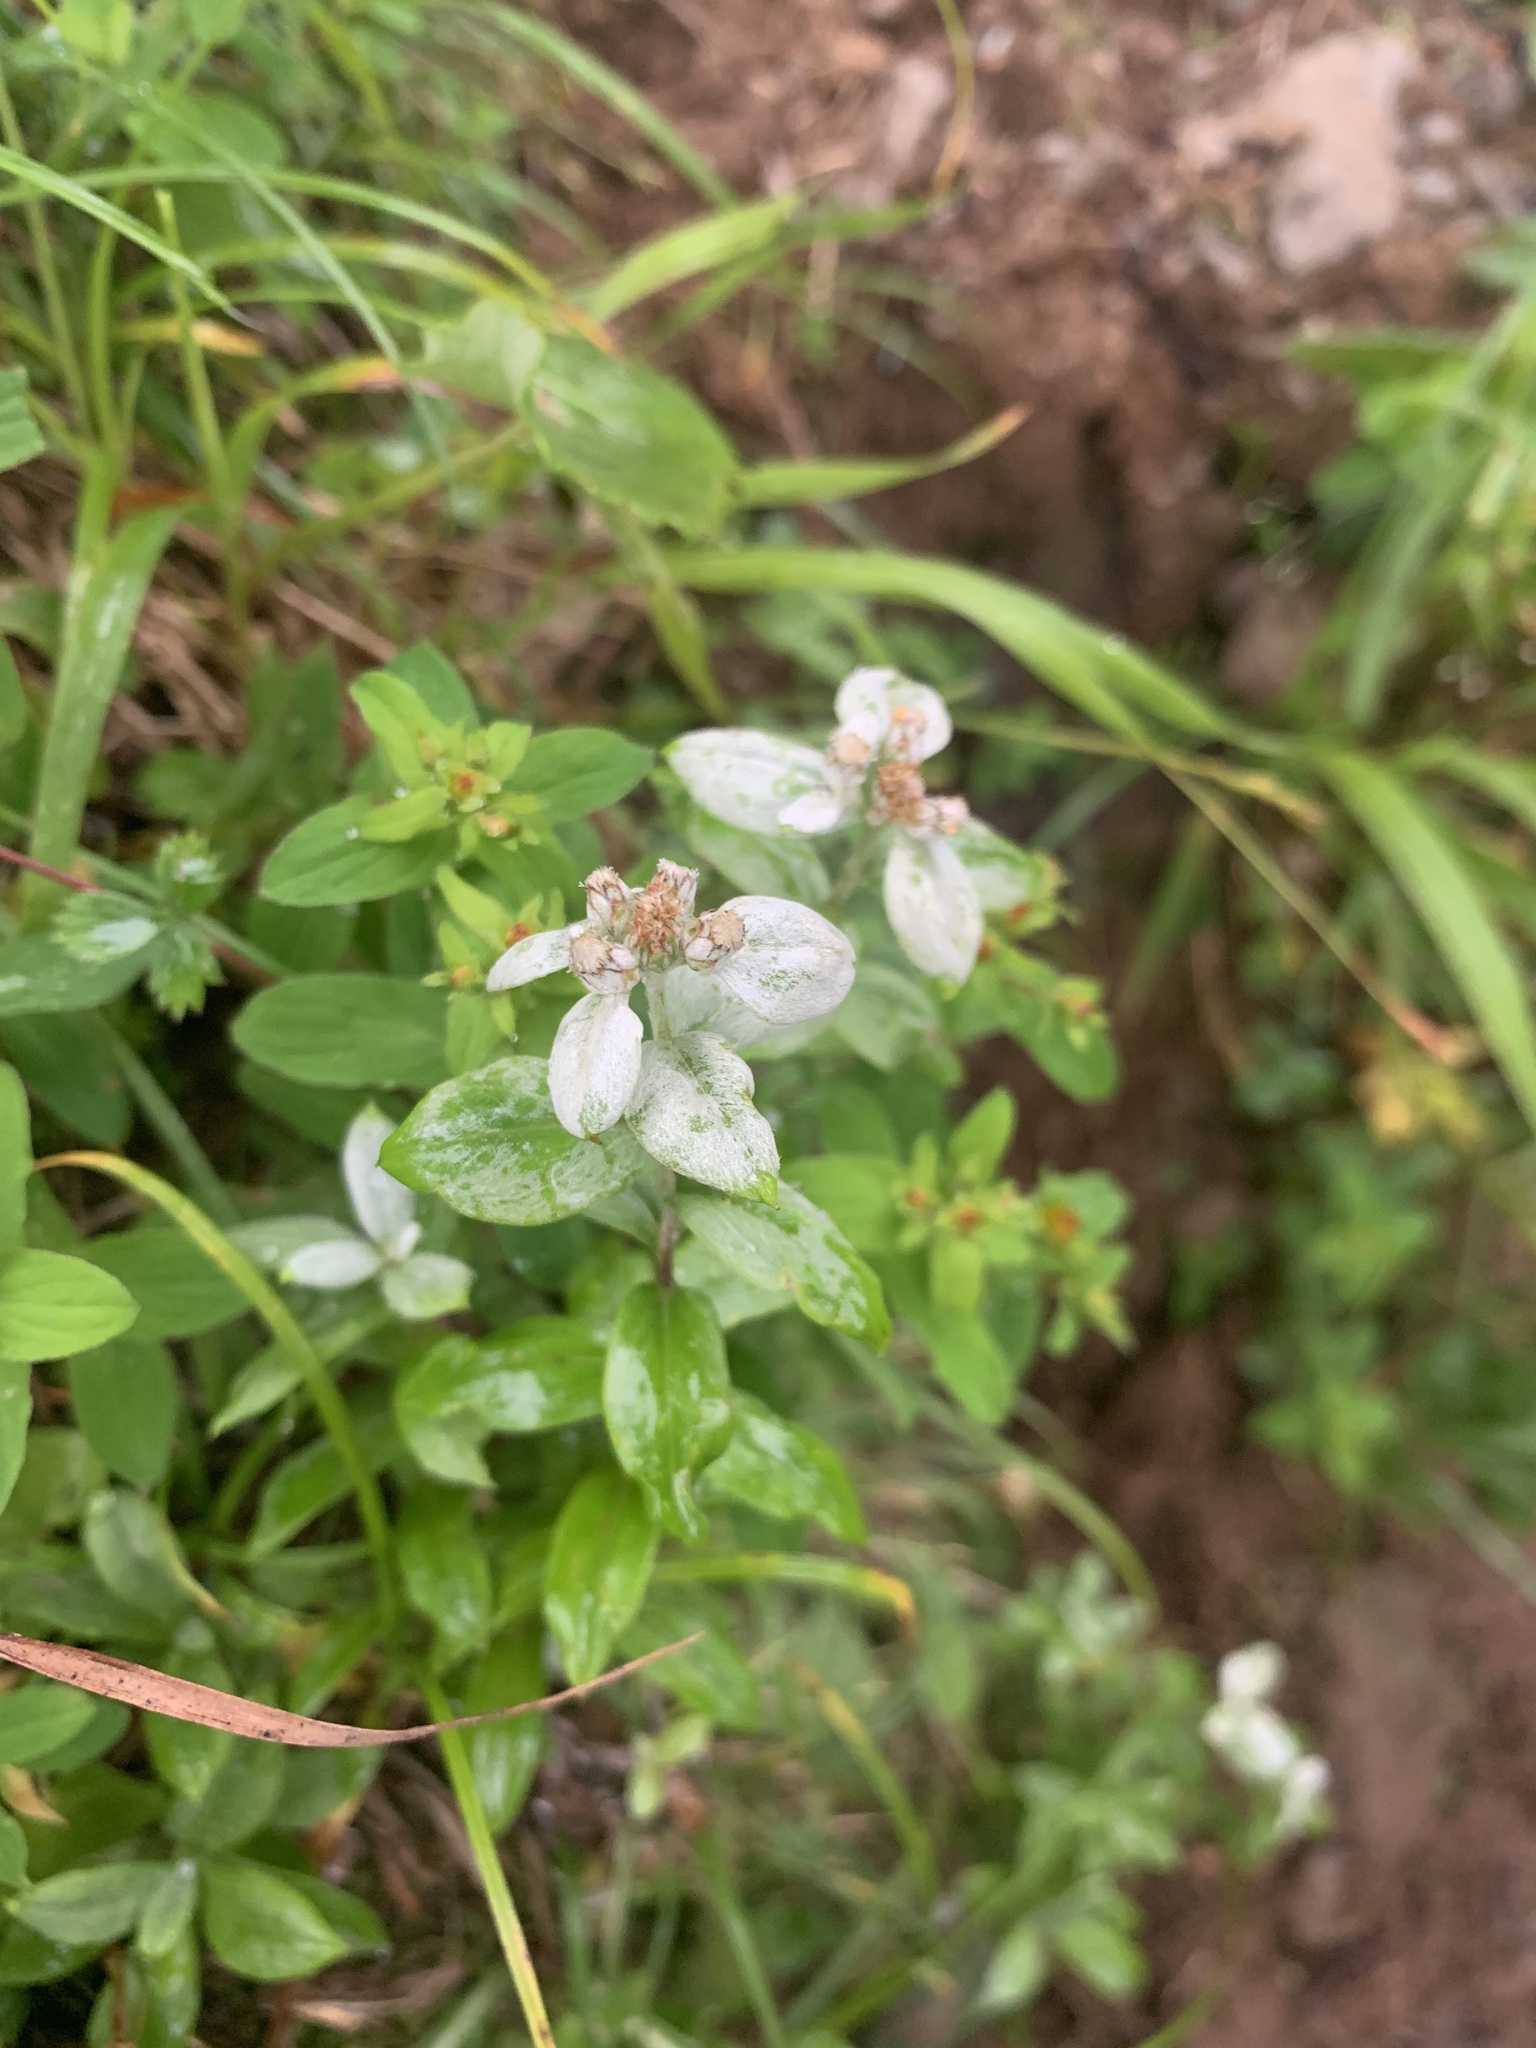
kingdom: Plantae
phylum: Tracheophyta
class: Magnoliopsida
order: Asterales
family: Asteraceae
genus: Leontopodium
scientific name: Leontopodium japonicum
